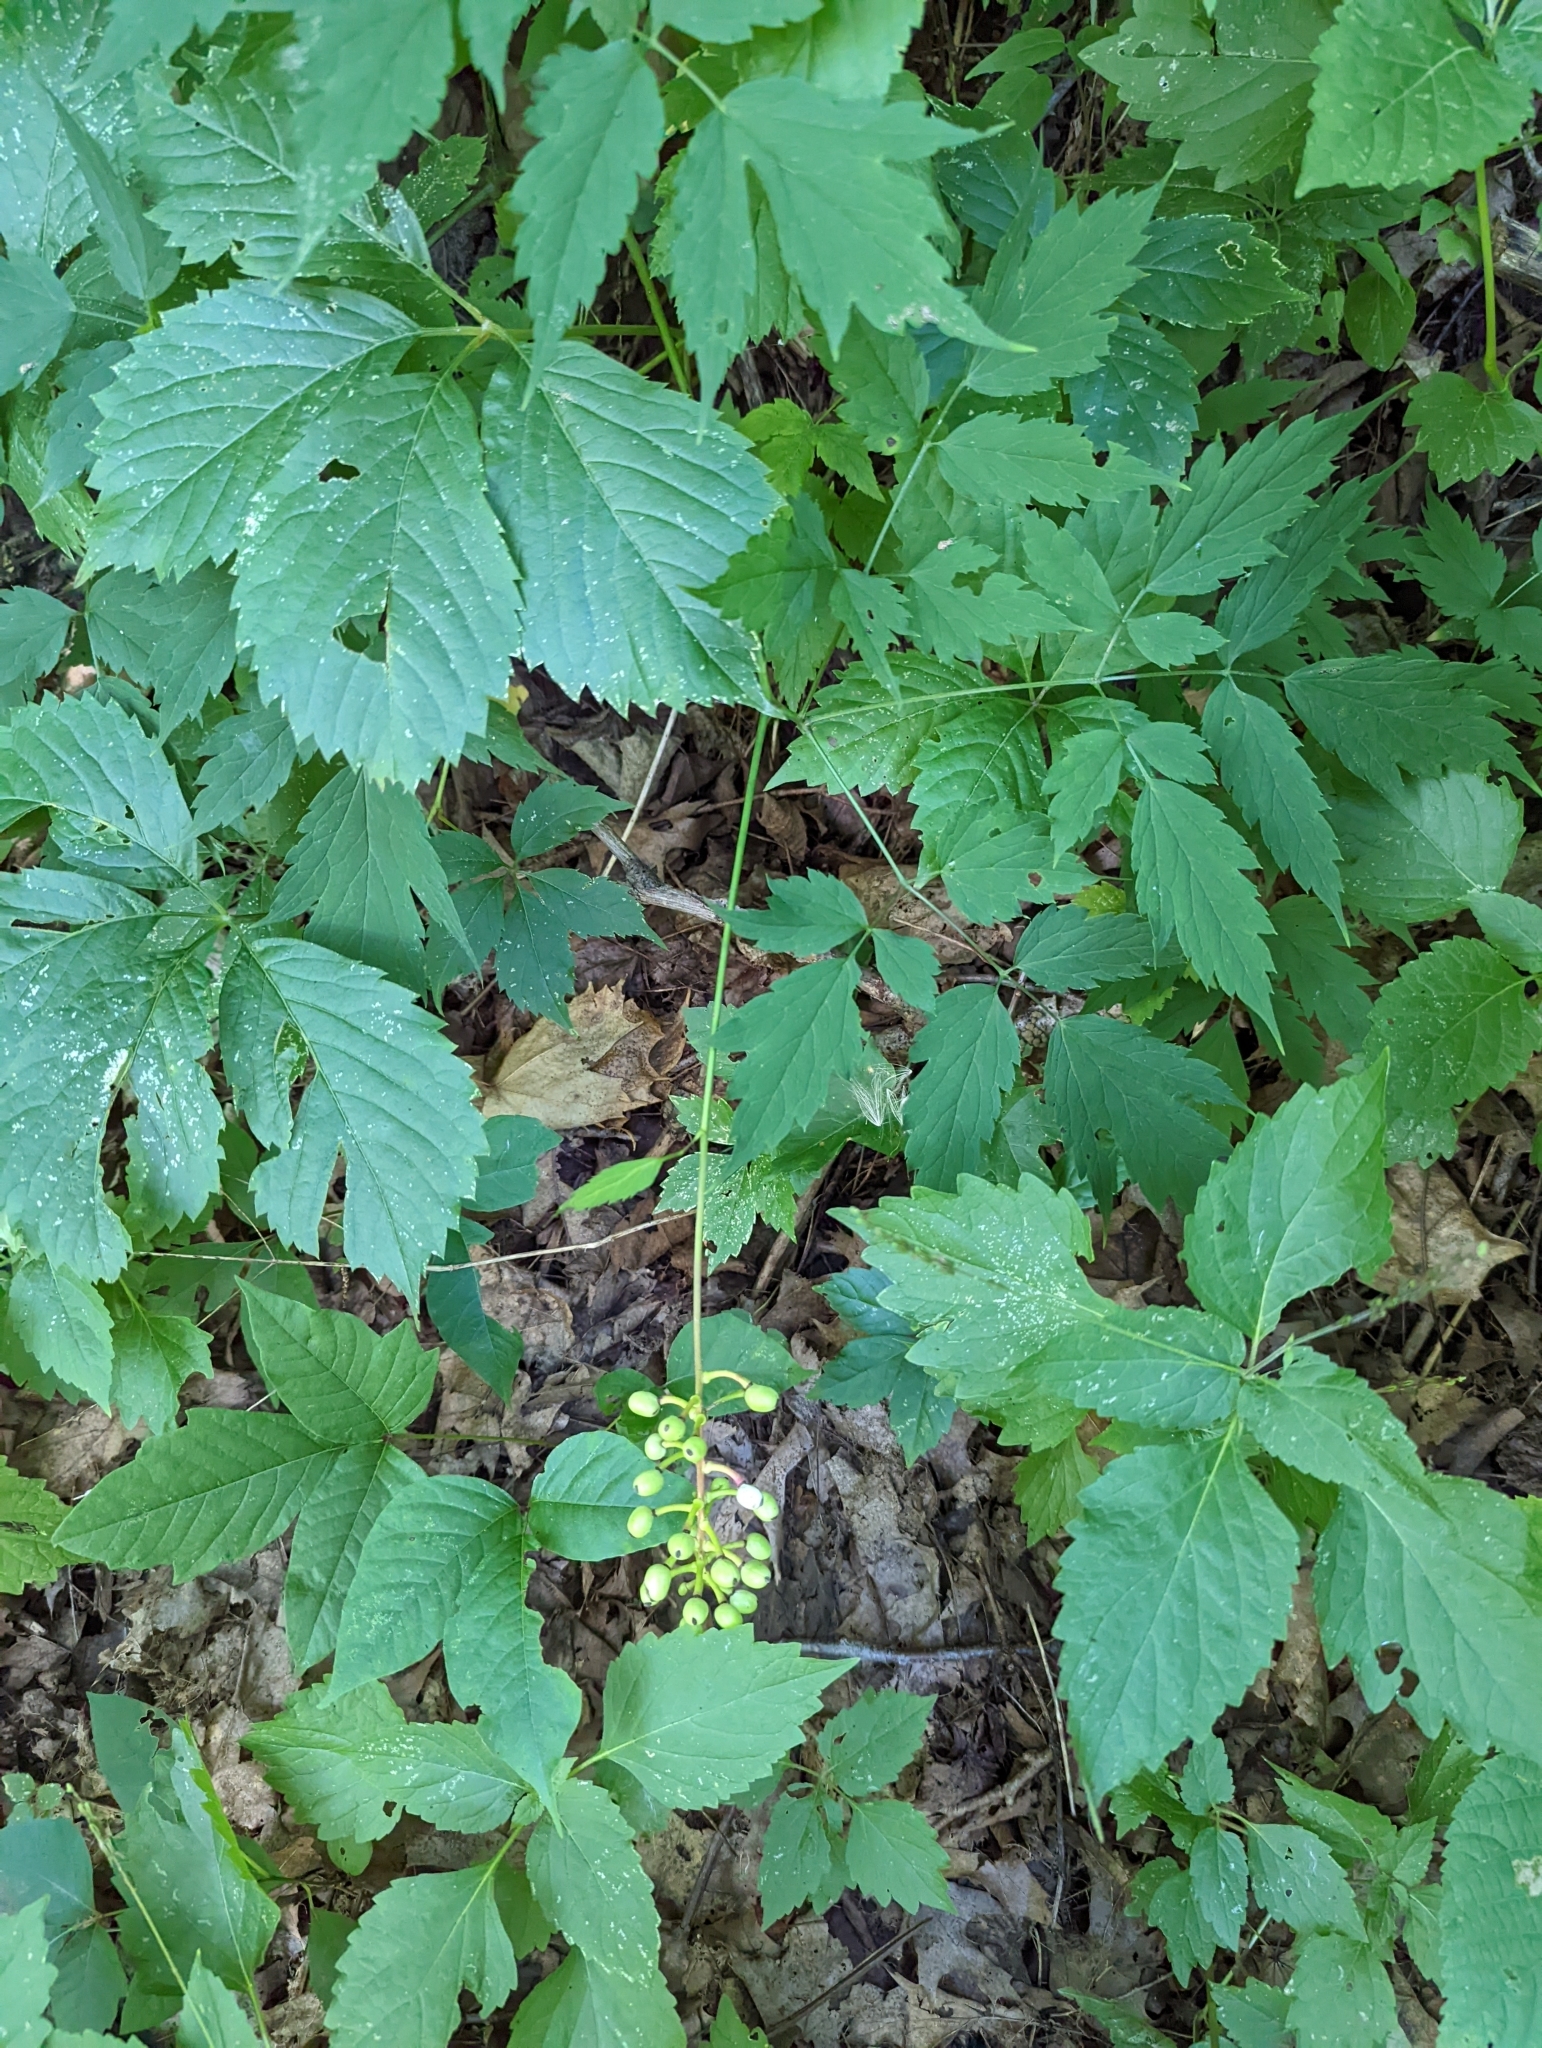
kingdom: Plantae
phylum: Tracheophyta
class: Magnoliopsida
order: Ranunculales
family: Ranunculaceae
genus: Actaea
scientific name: Actaea pachypoda
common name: Doll's-eyes
